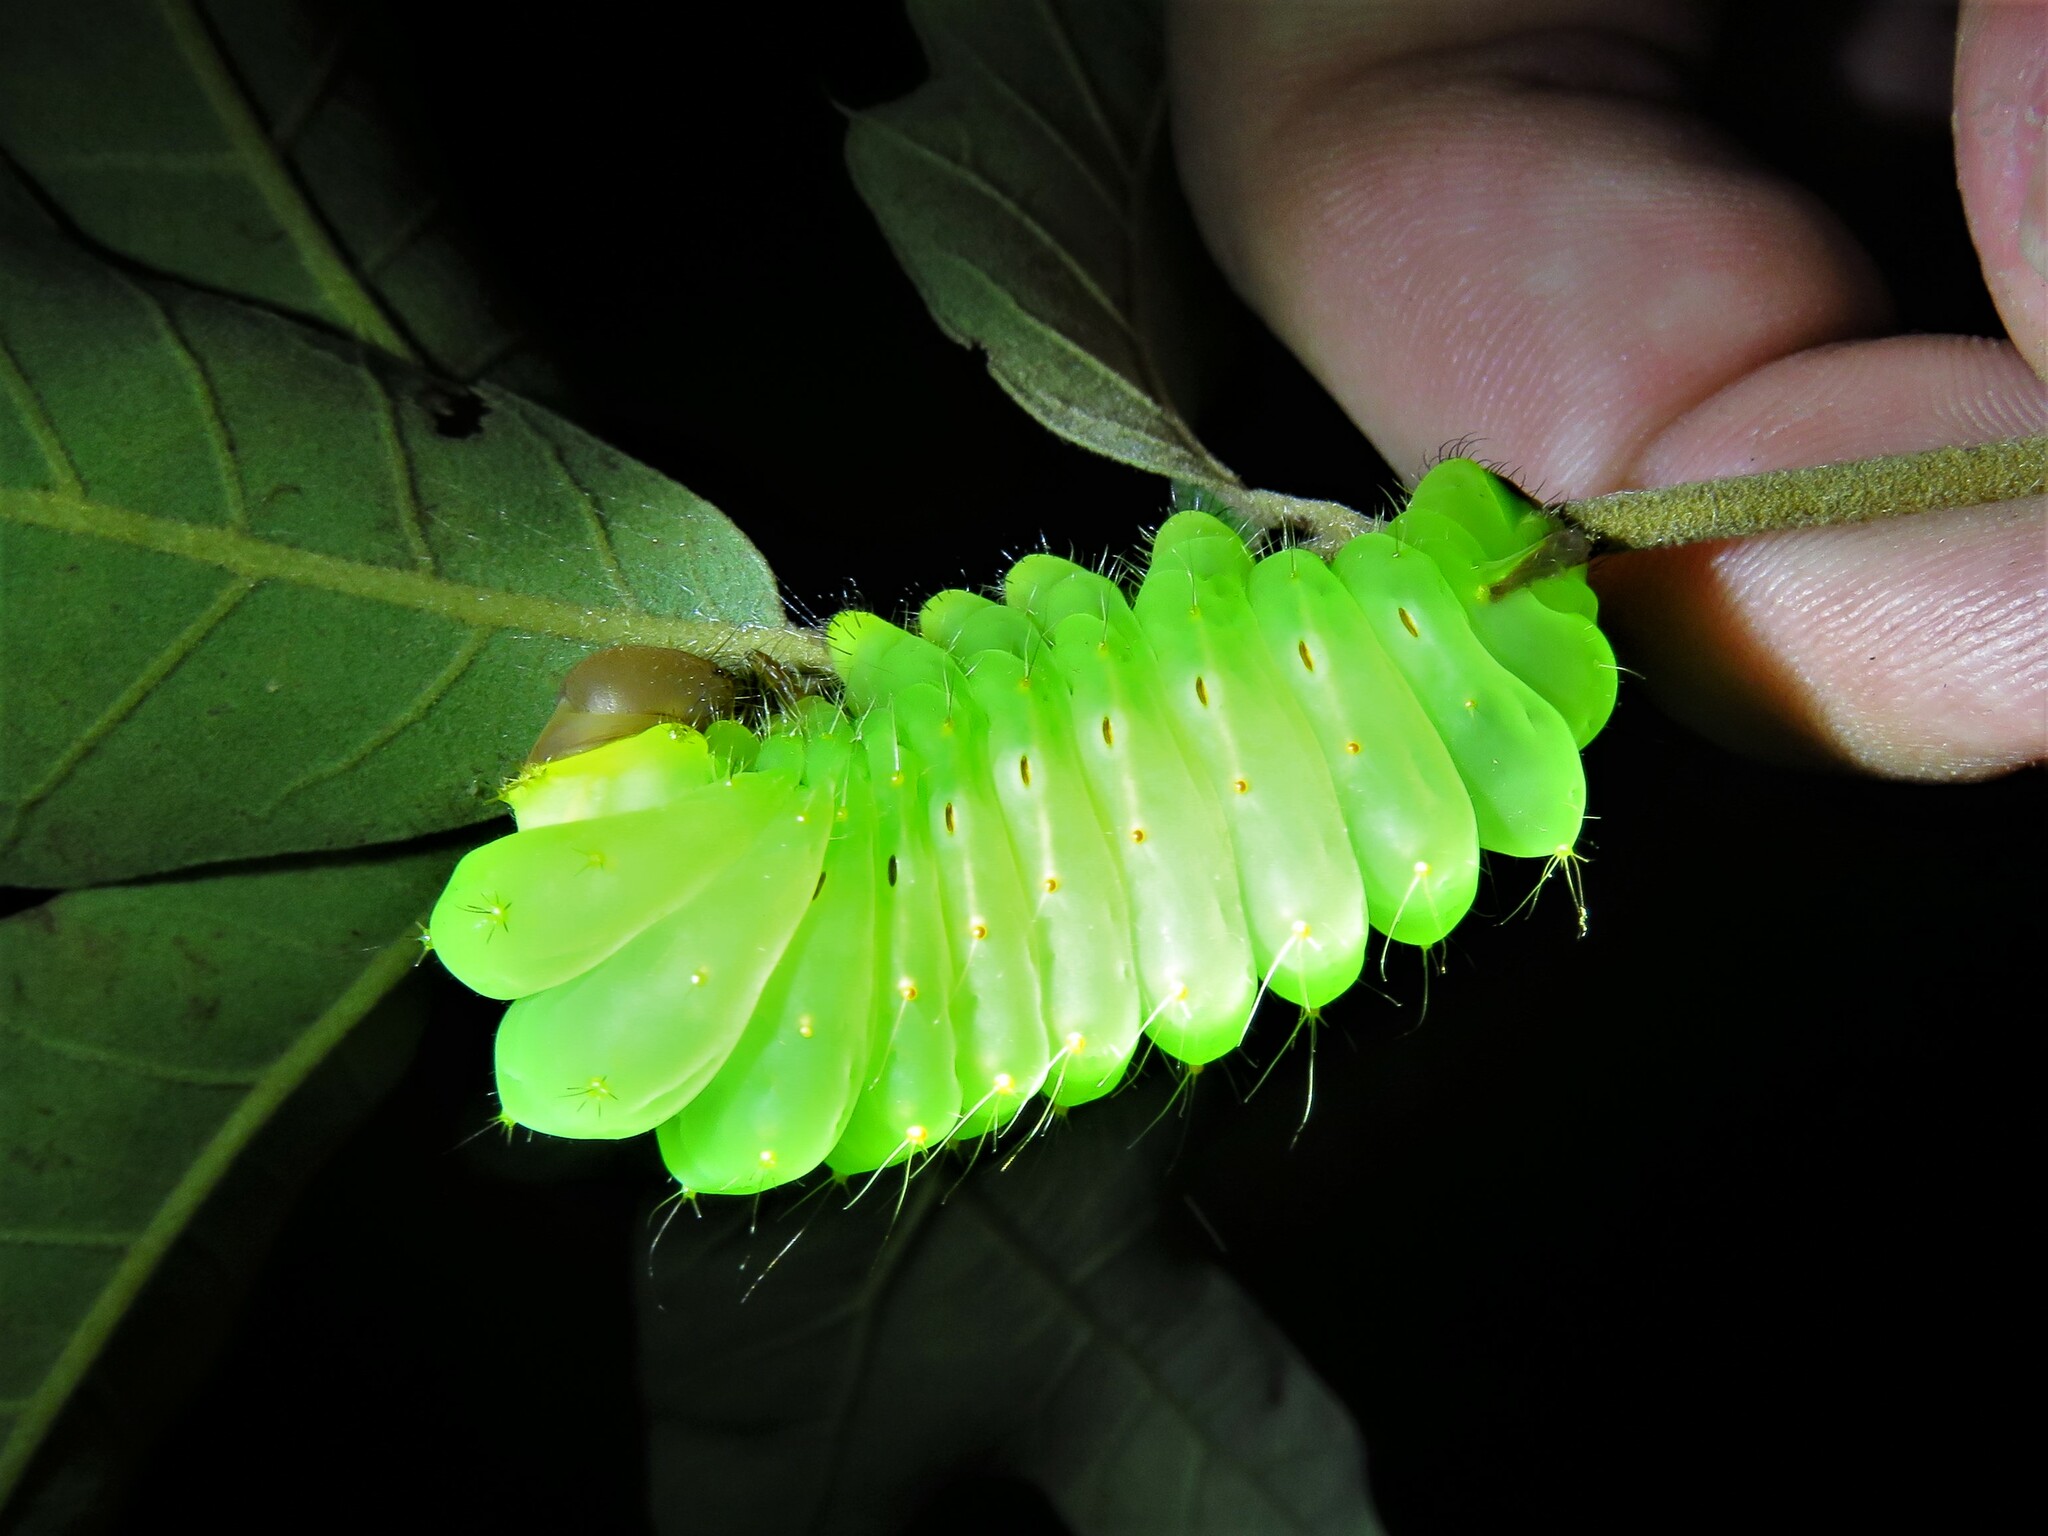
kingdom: Animalia
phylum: Arthropoda
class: Insecta
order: Lepidoptera
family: Saturniidae
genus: Antheraea
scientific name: Antheraea polyphemus
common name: Polyphemus moth
